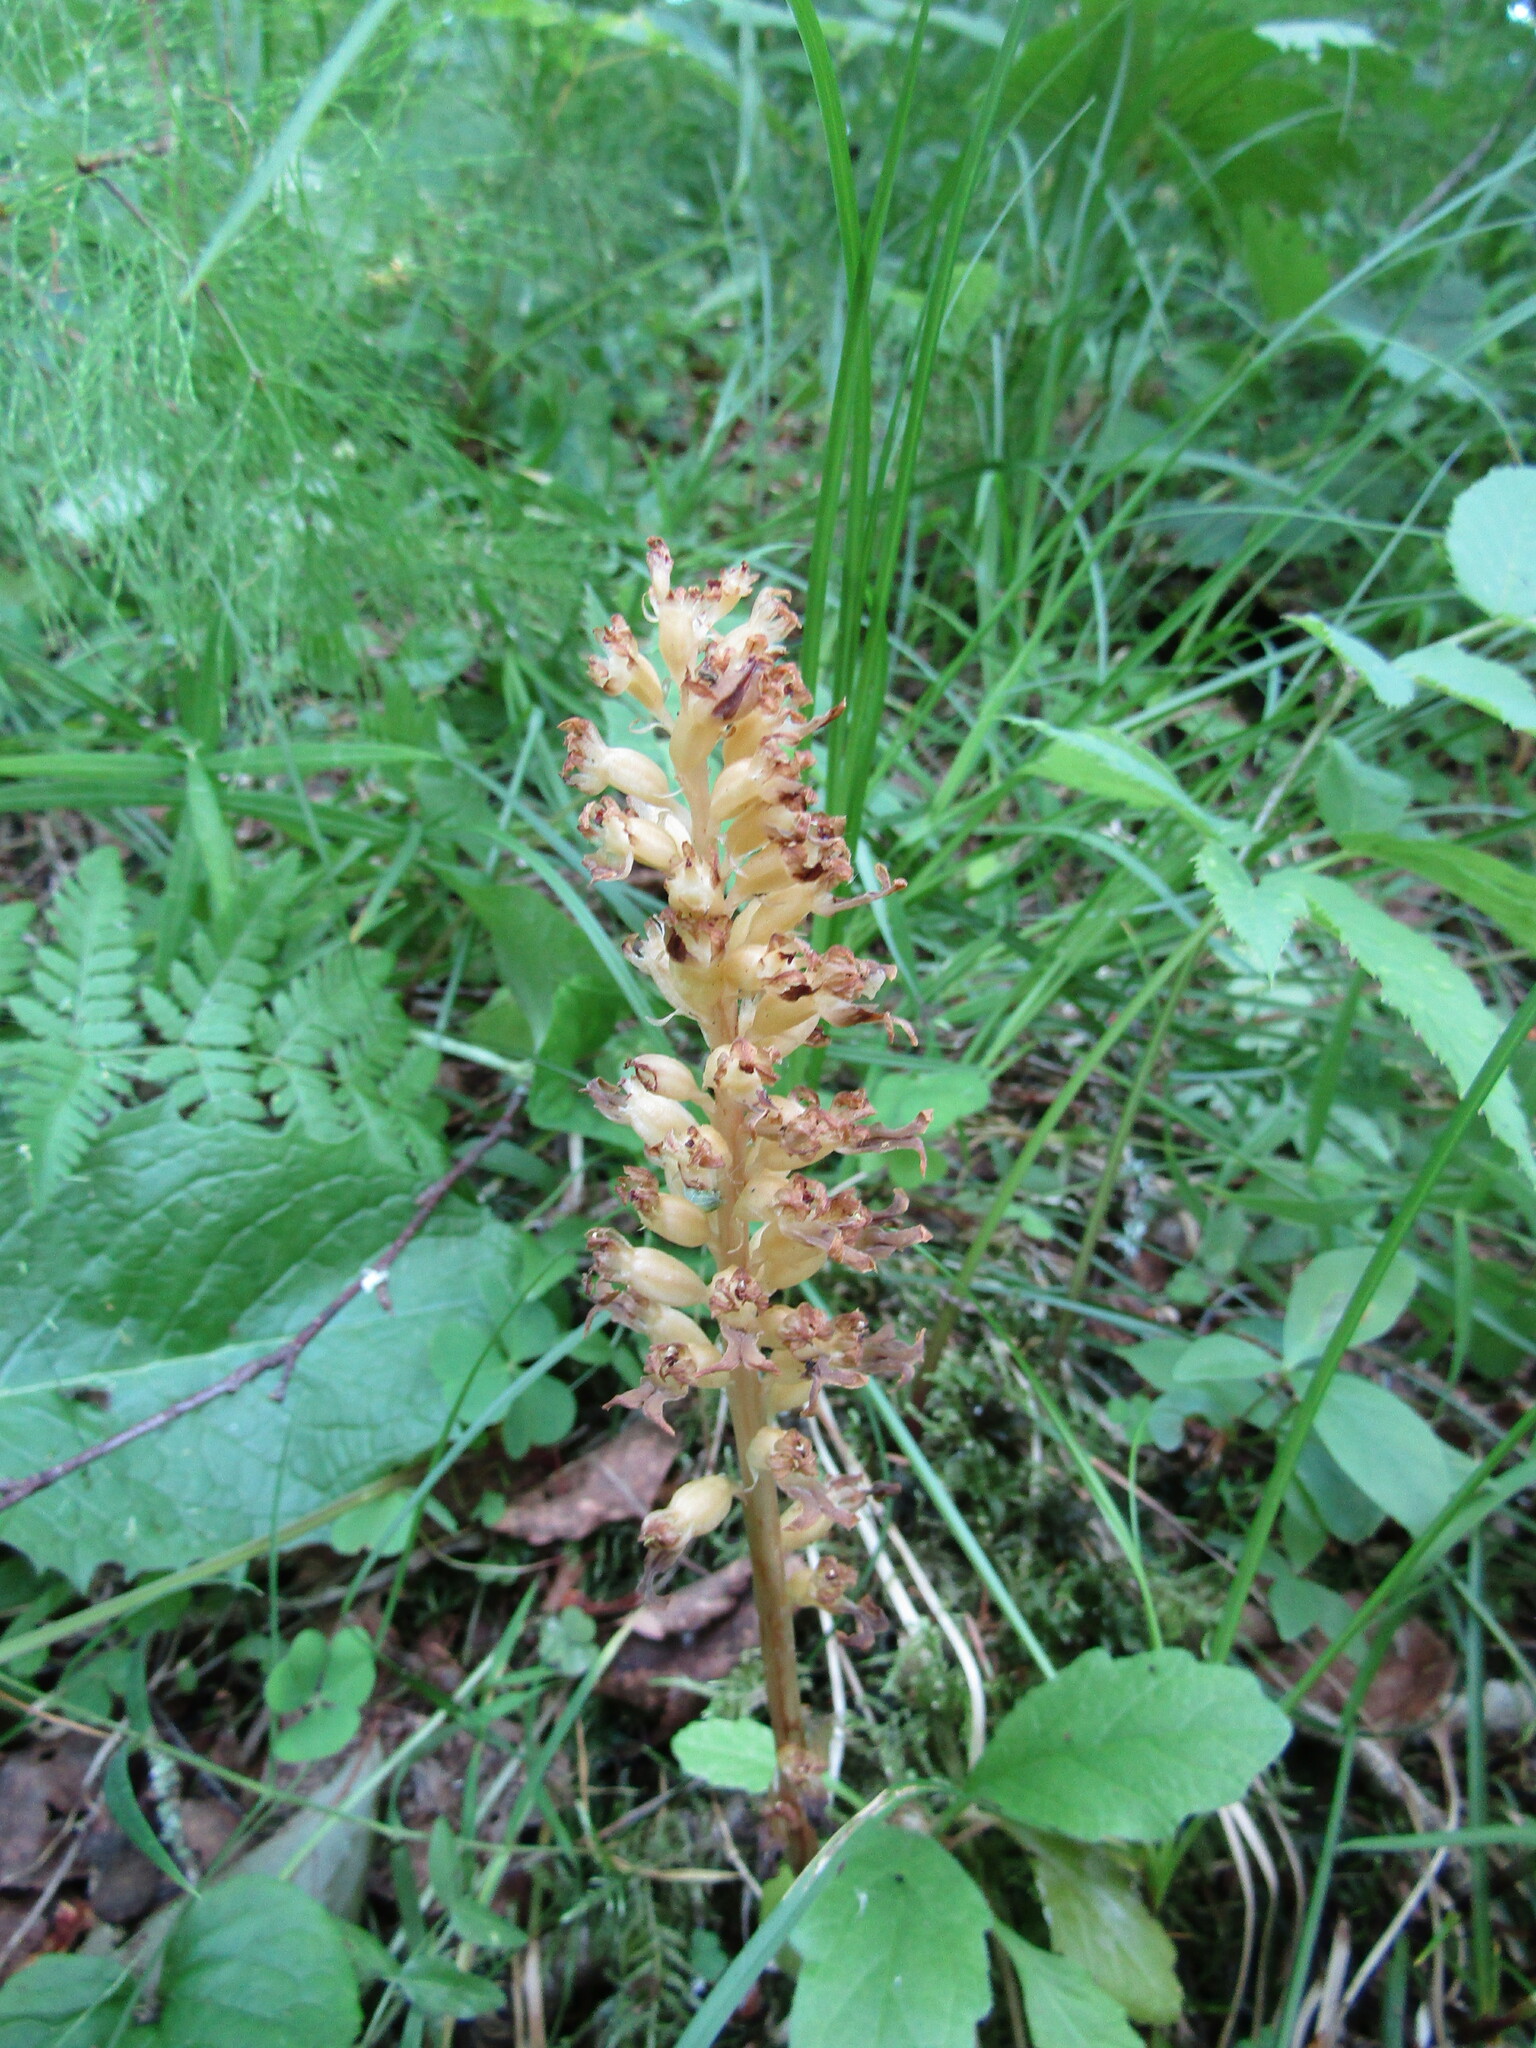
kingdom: Plantae
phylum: Tracheophyta
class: Liliopsida
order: Asparagales
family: Orchidaceae
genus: Neottia
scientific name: Neottia nidus-avis
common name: Bird's-nest orchid
